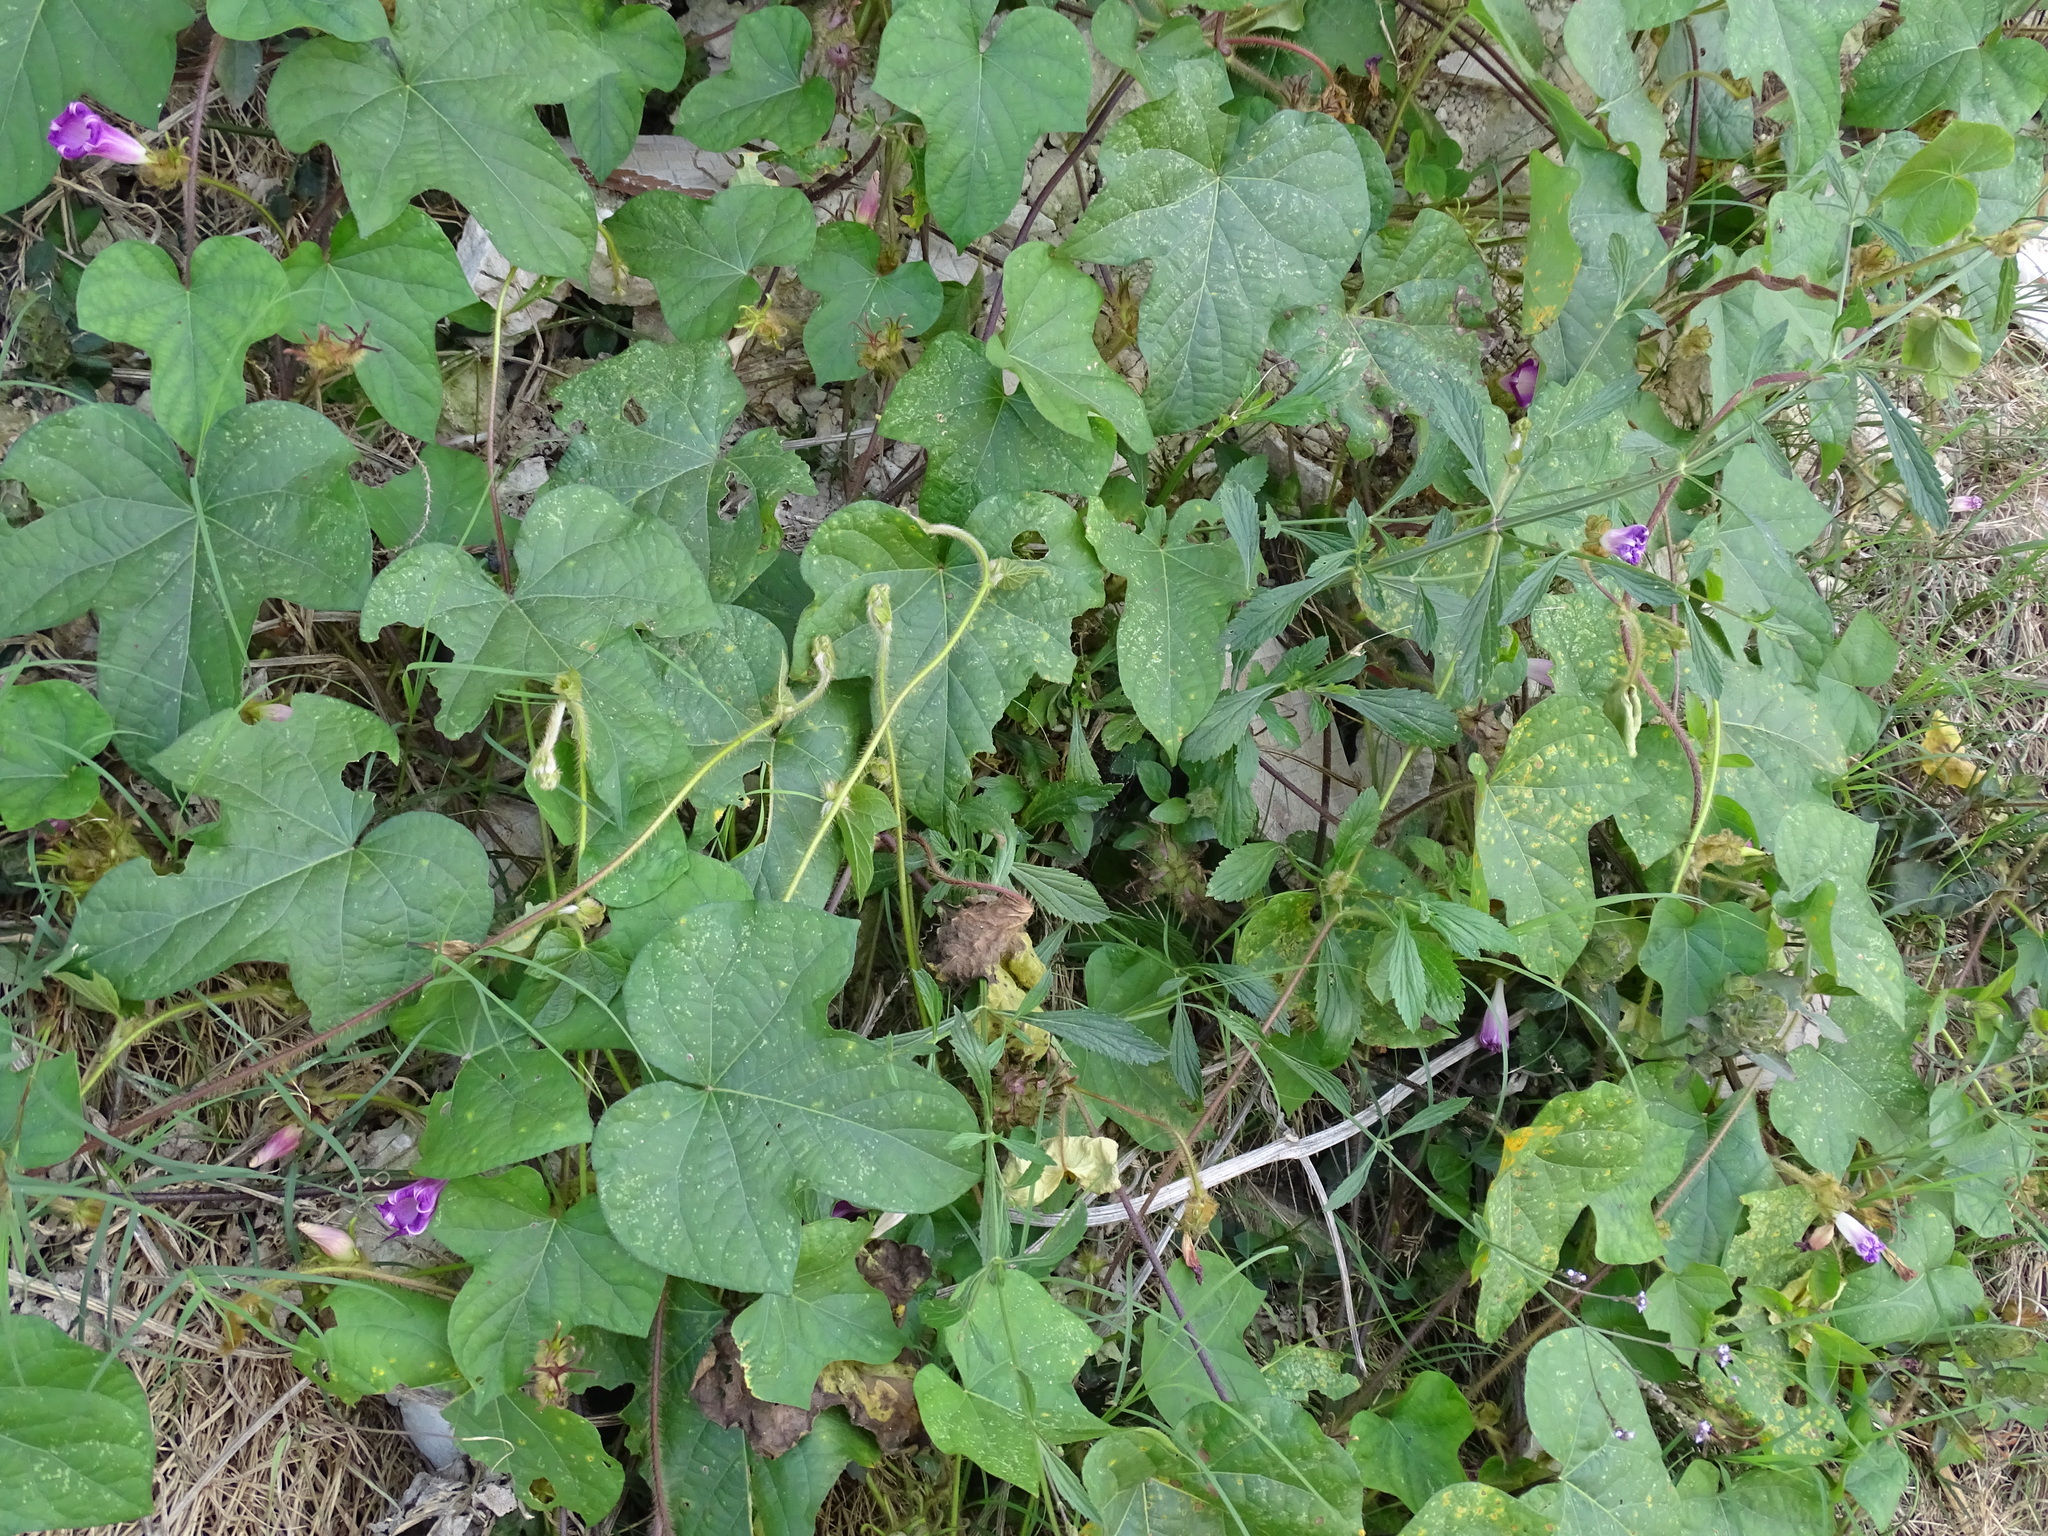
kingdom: Plantae
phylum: Tracheophyta
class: Magnoliopsida
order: Solanales
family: Convolvulaceae
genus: Ipomoea
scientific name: Ipomoea hederacea
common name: Ivy-leaved morning-glory
